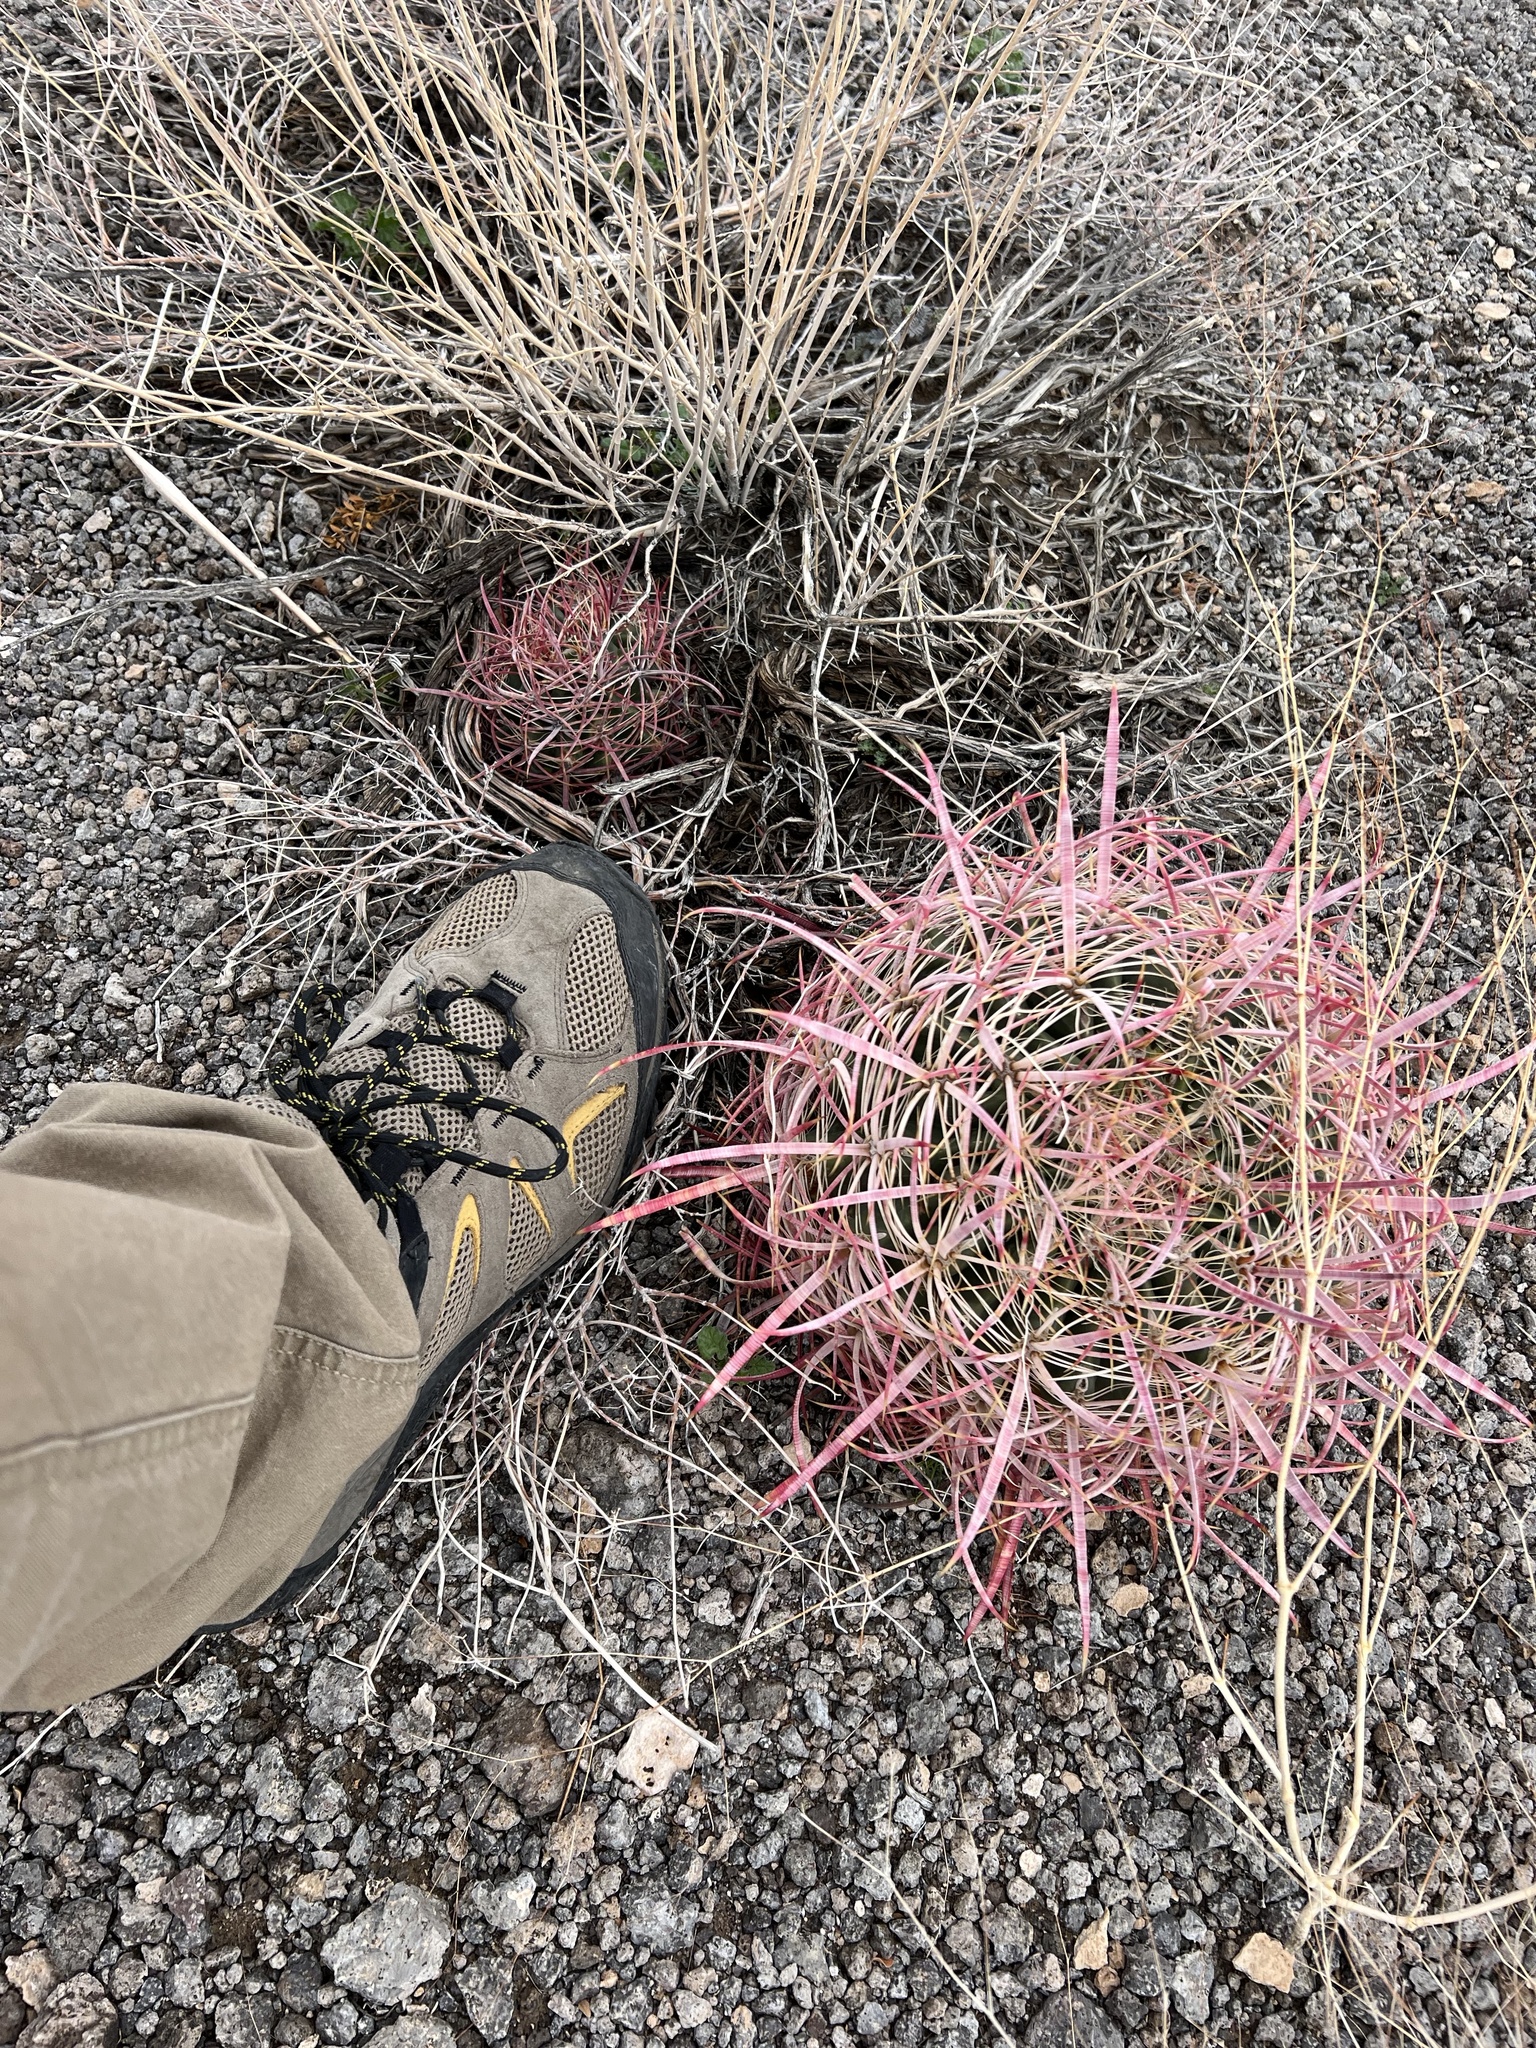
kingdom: Plantae
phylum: Tracheophyta
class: Magnoliopsida
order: Caryophyllales
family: Cactaceae
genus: Ferocactus
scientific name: Ferocactus cylindraceus
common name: California barrel cactus
